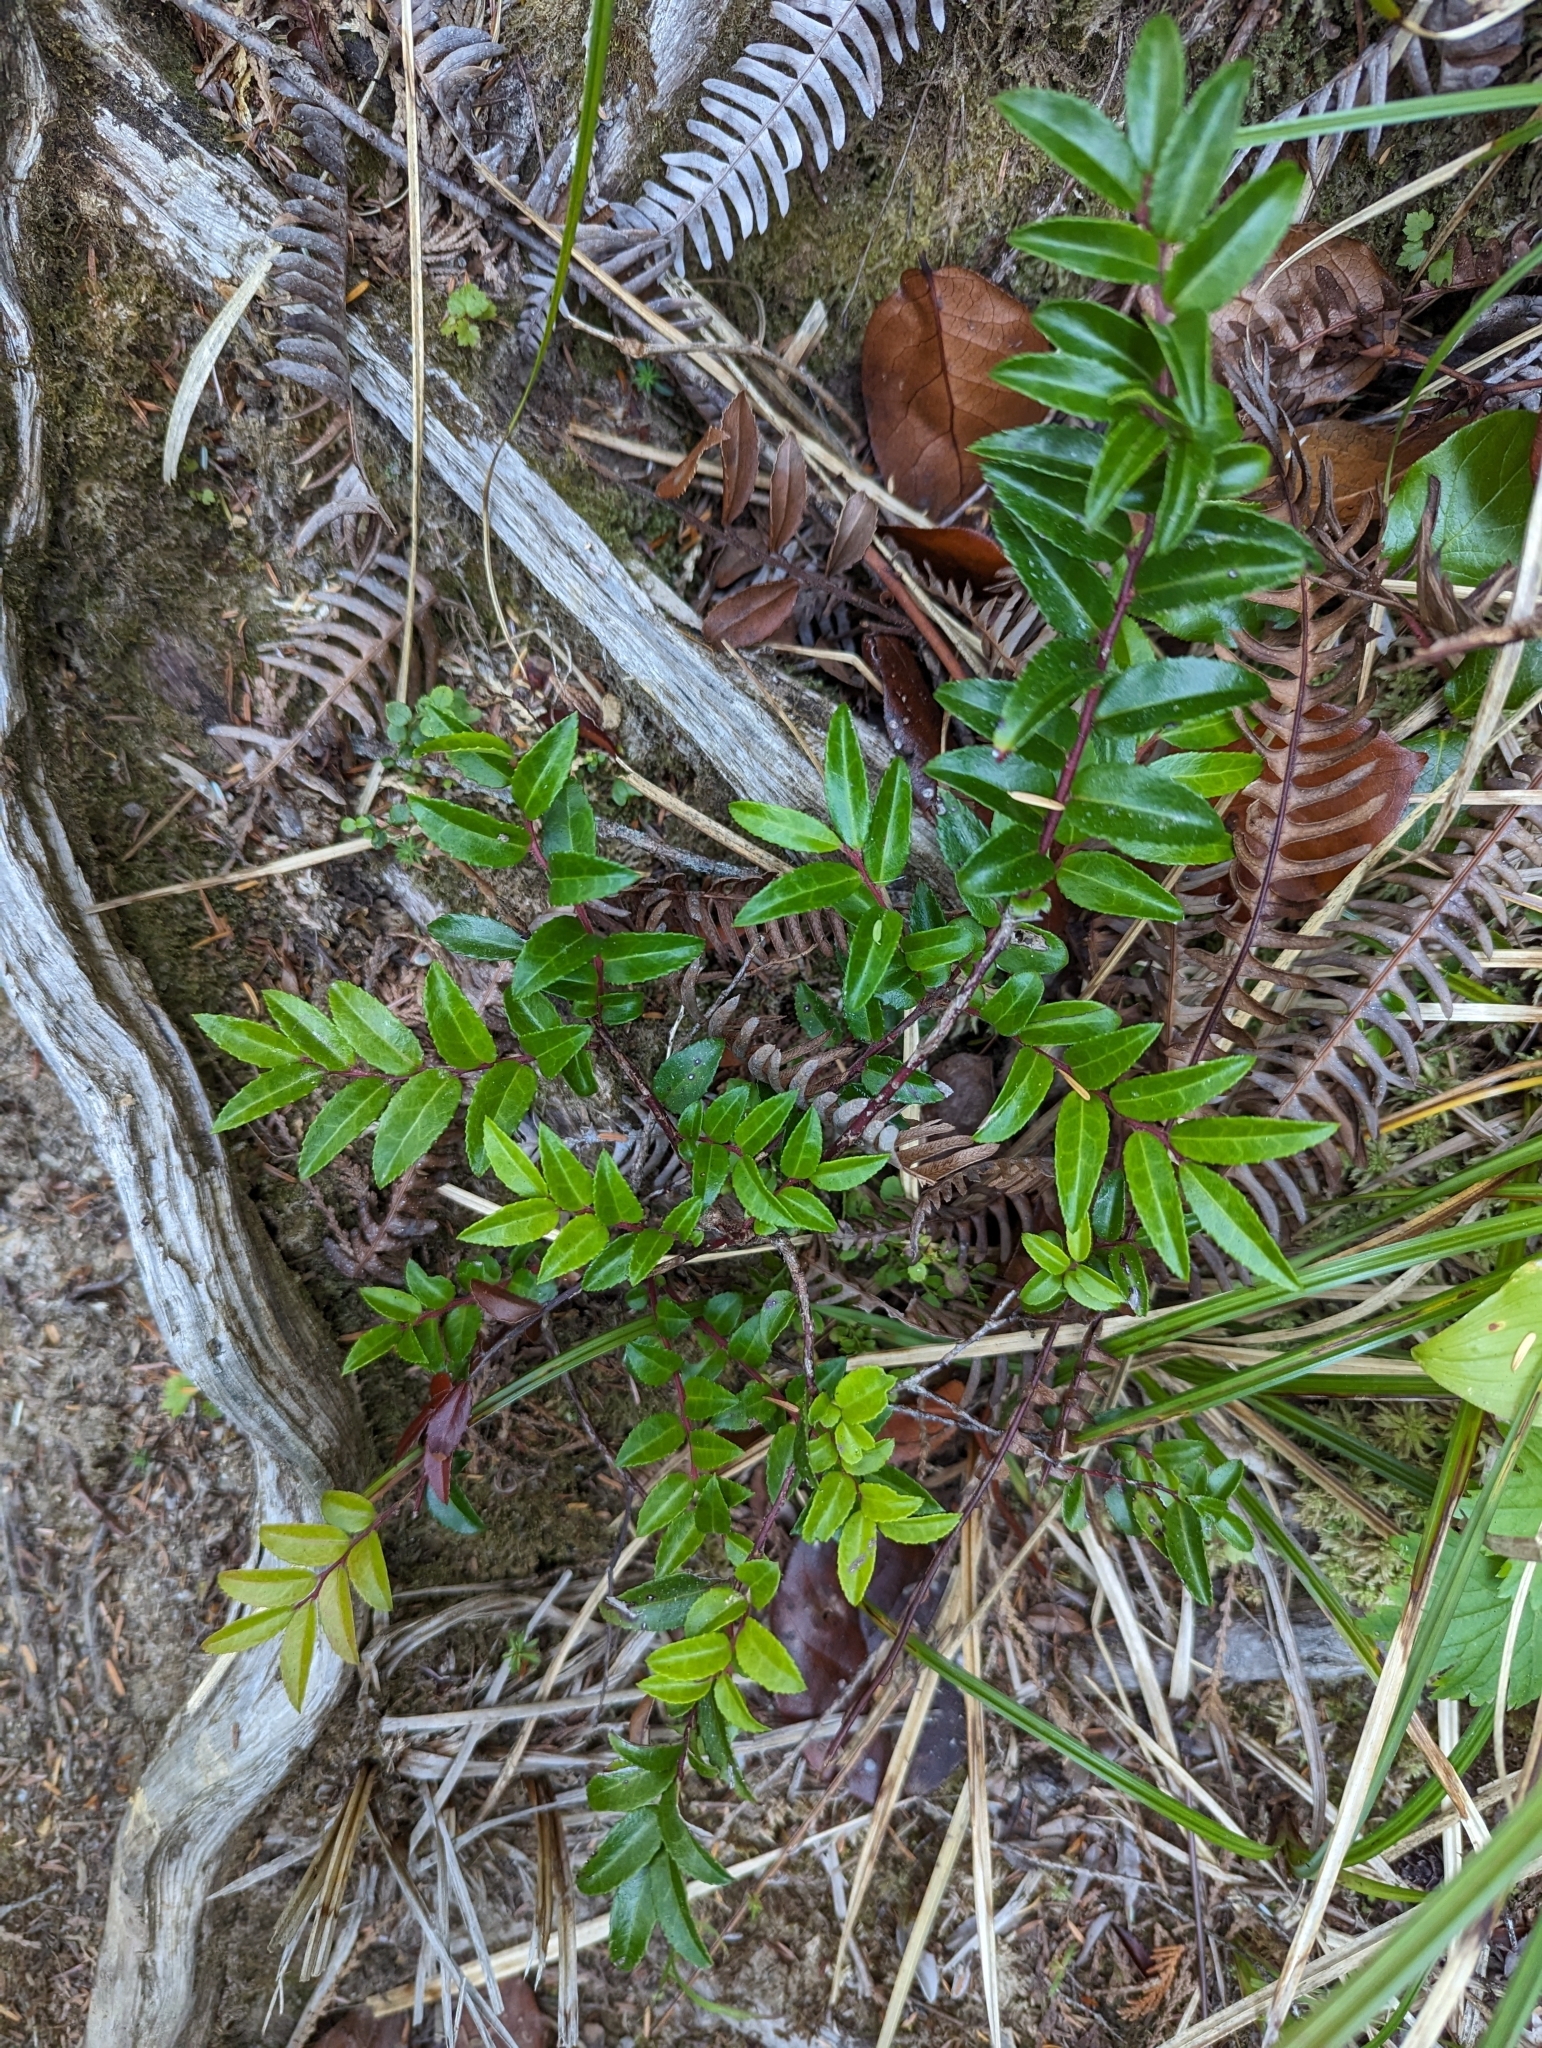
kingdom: Plantae
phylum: Tracheophyta
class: Magnoliopsida
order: Ericales
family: Ericaceae
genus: Vaccinium
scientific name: Vaccinium ovatum
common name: California-huckleberry
